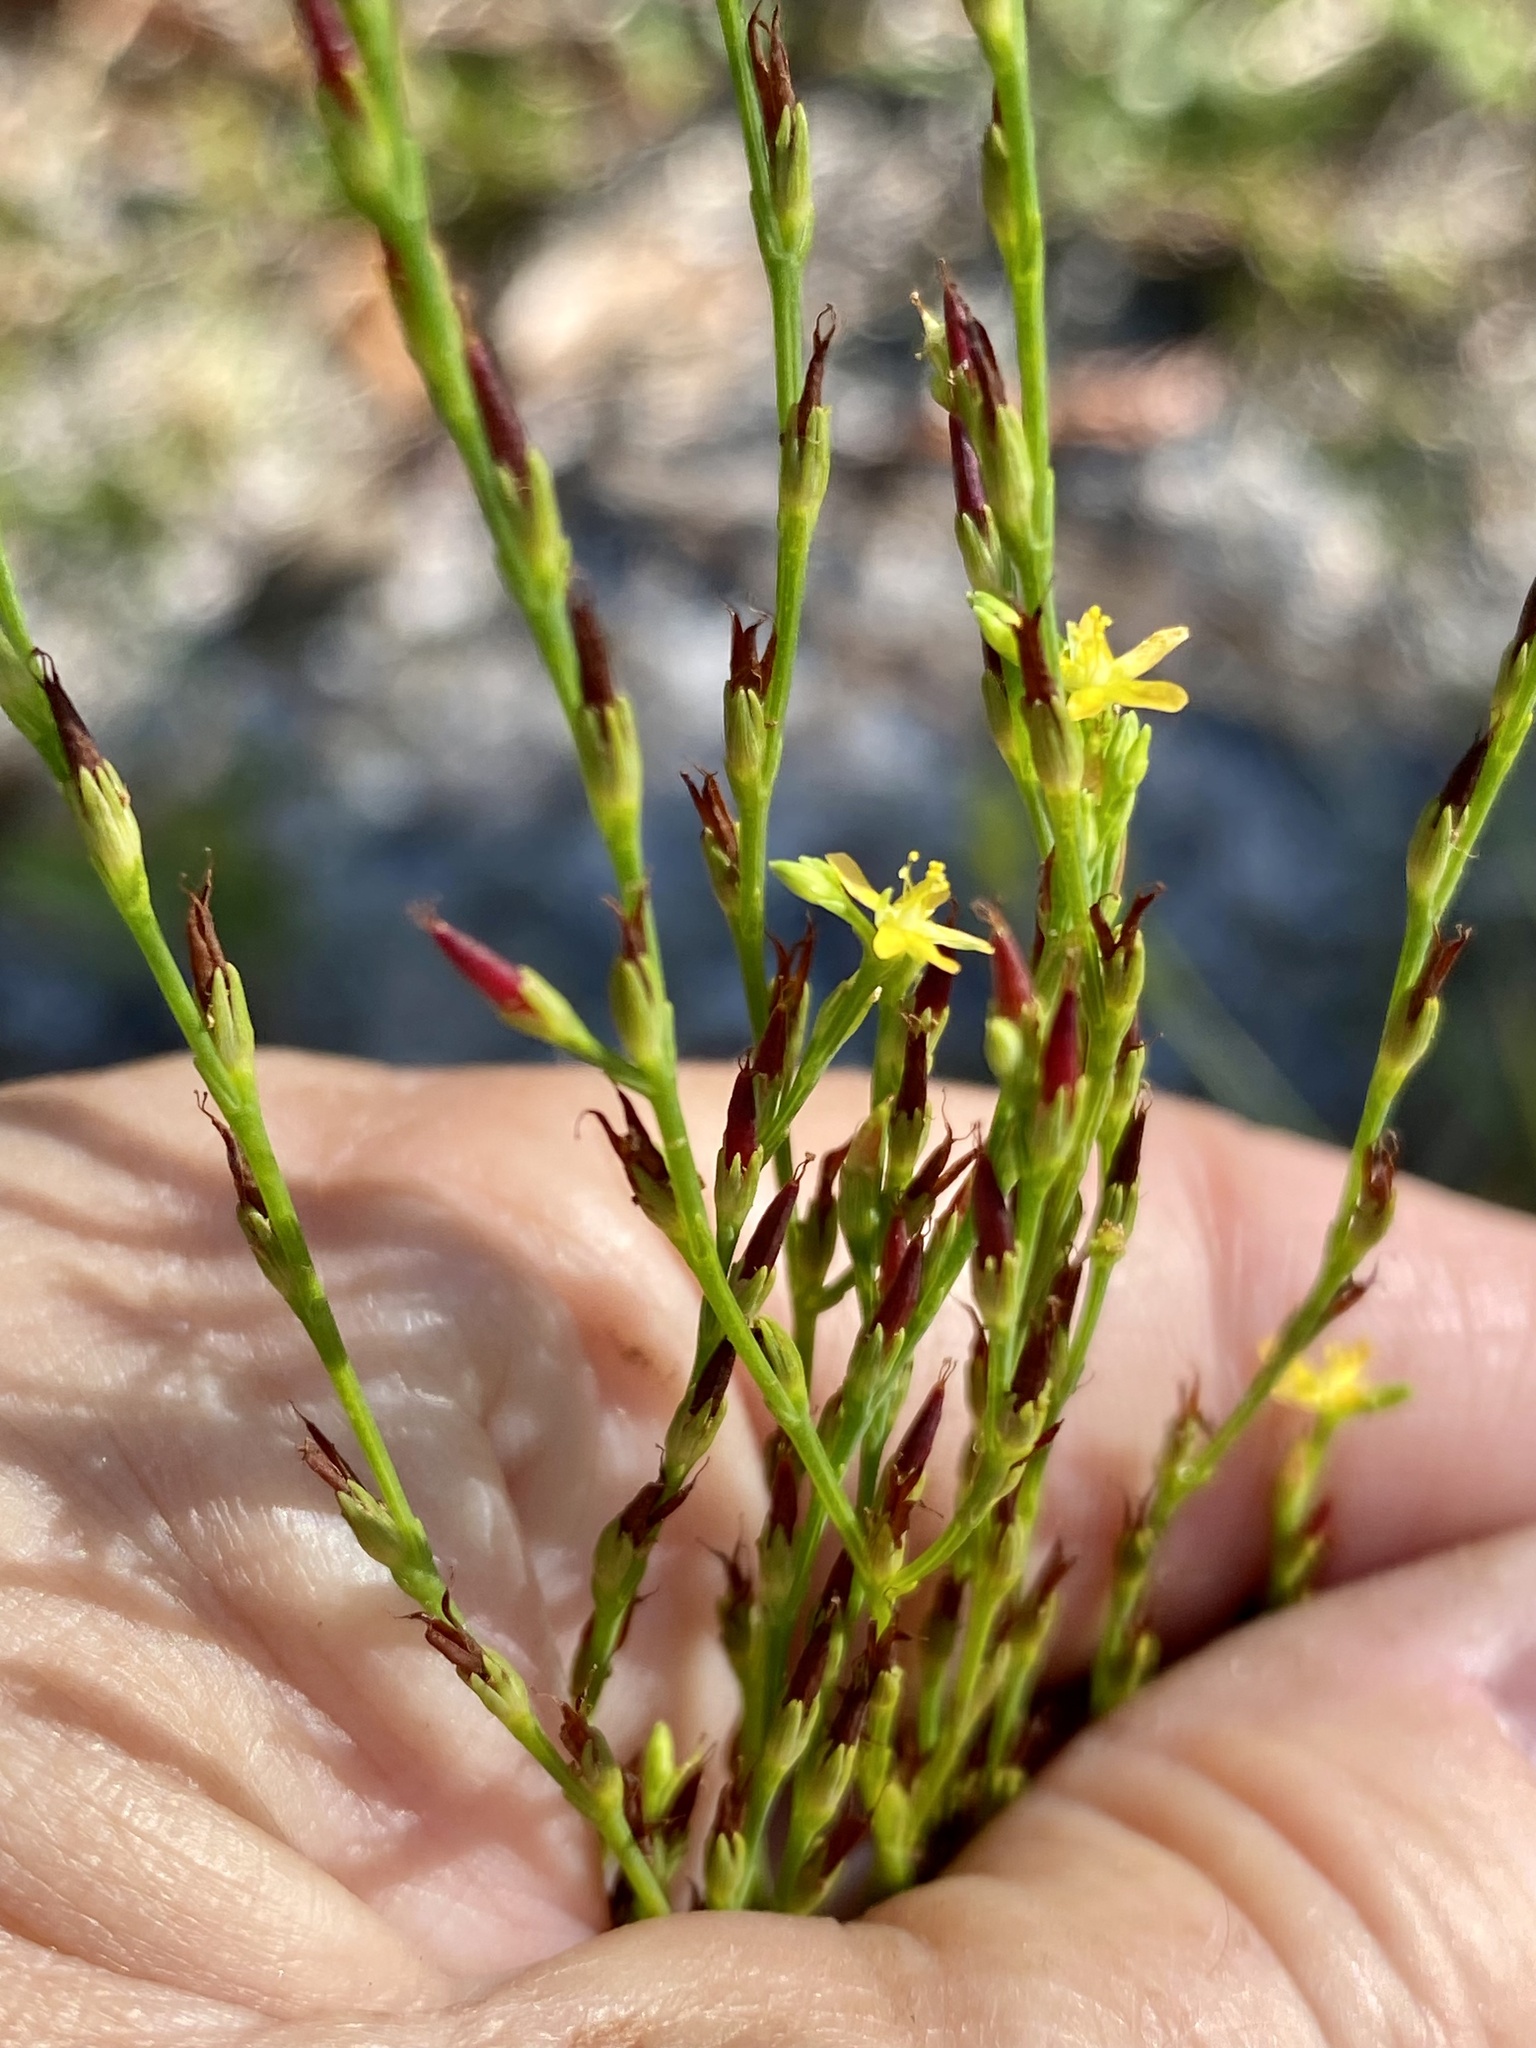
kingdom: Plantae
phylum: Tracheophyta
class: Magnoliopsida
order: Malpighiales
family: Hypericaceae
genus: Hypericum
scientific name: Hypericum gentianoides
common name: Gentian-leaved st. john's-wort
